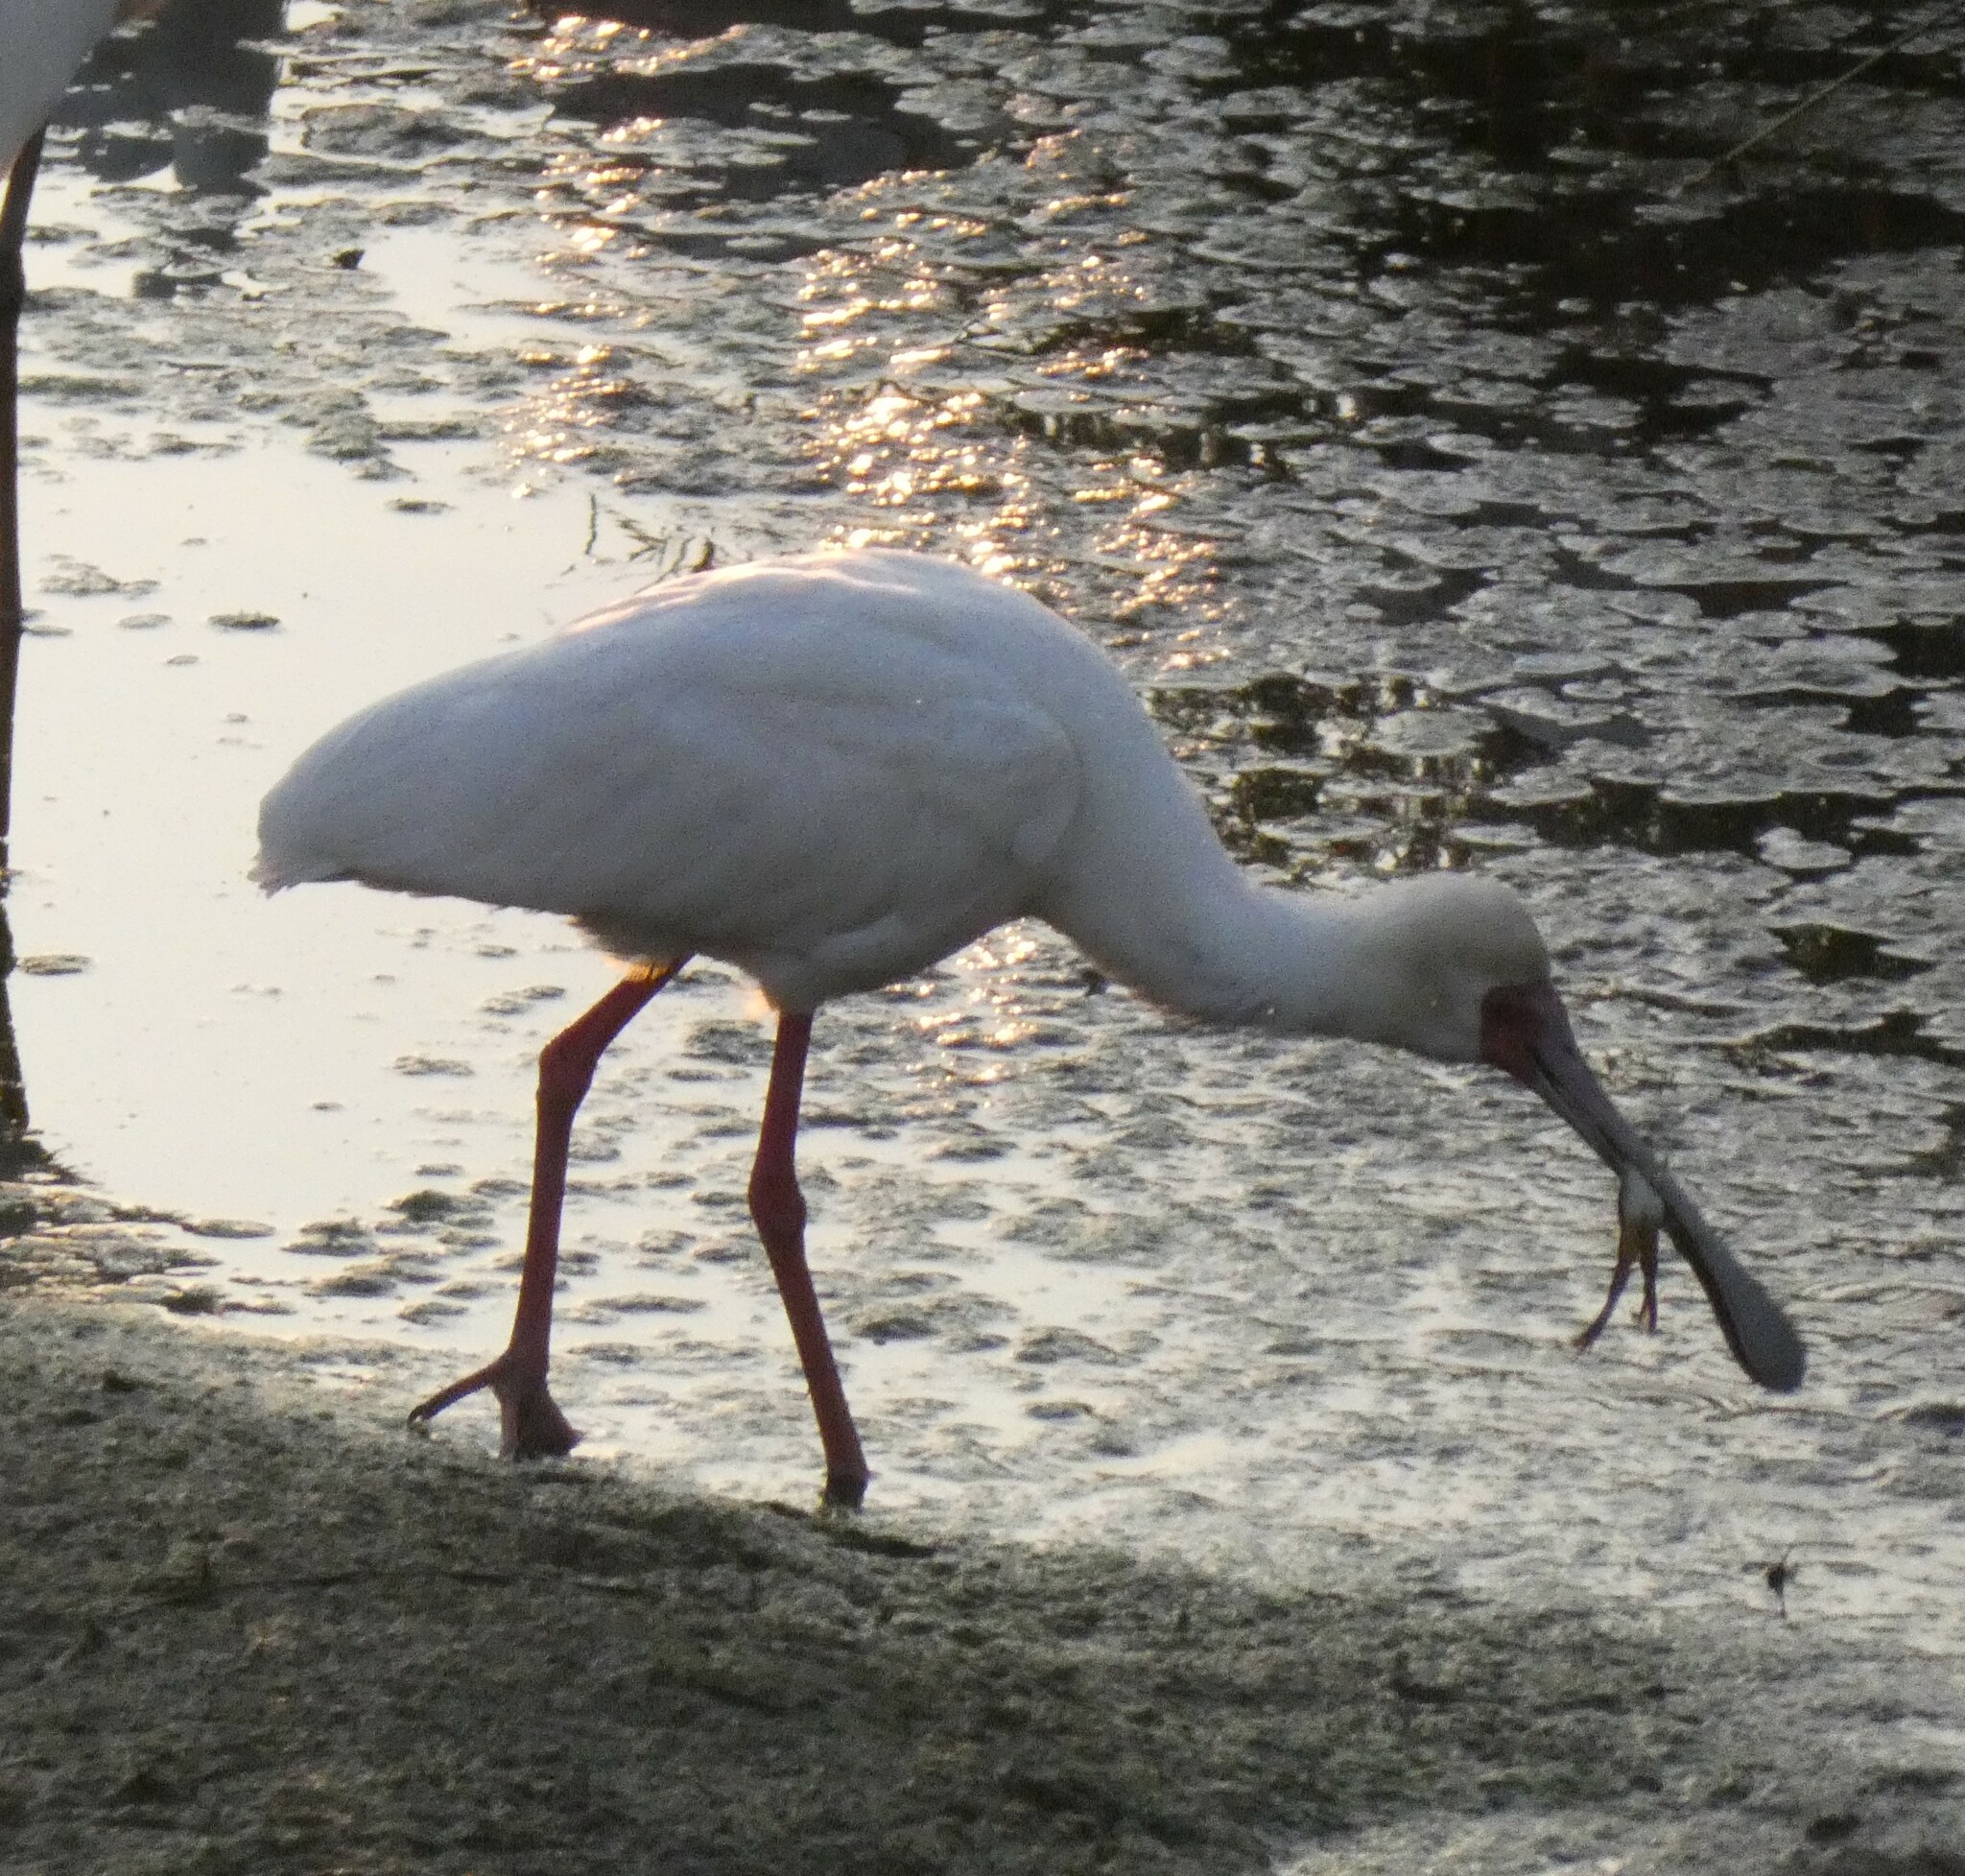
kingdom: Animalia
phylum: Chordata
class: Aves
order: Pelecaniformes
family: Threskiornithidae
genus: Platalea
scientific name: Platalea alba
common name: African spoonbill
